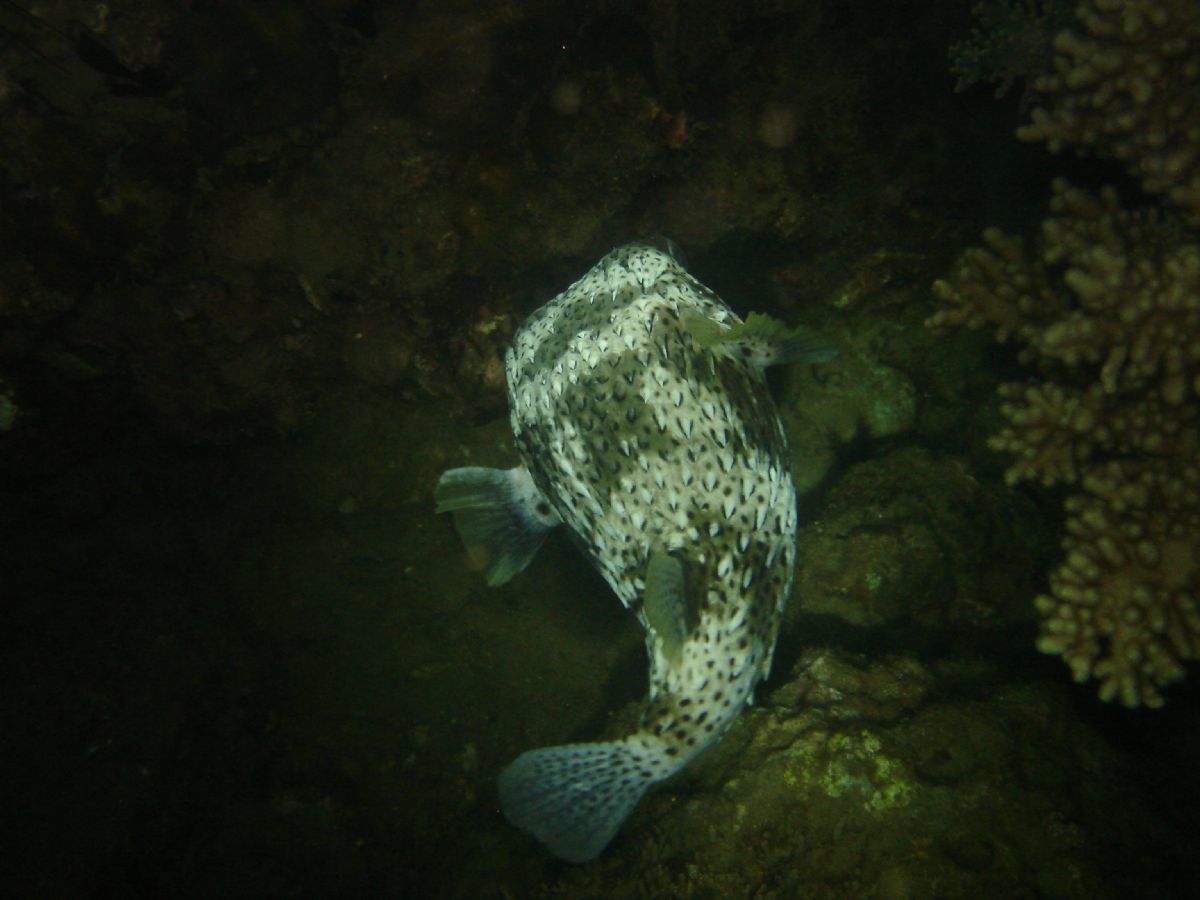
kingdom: Animalia
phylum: Chordata
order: Tetraodontiformes
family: Diodontidae
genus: Diodon
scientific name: Diodon hystrix
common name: Giant porcupinefish
